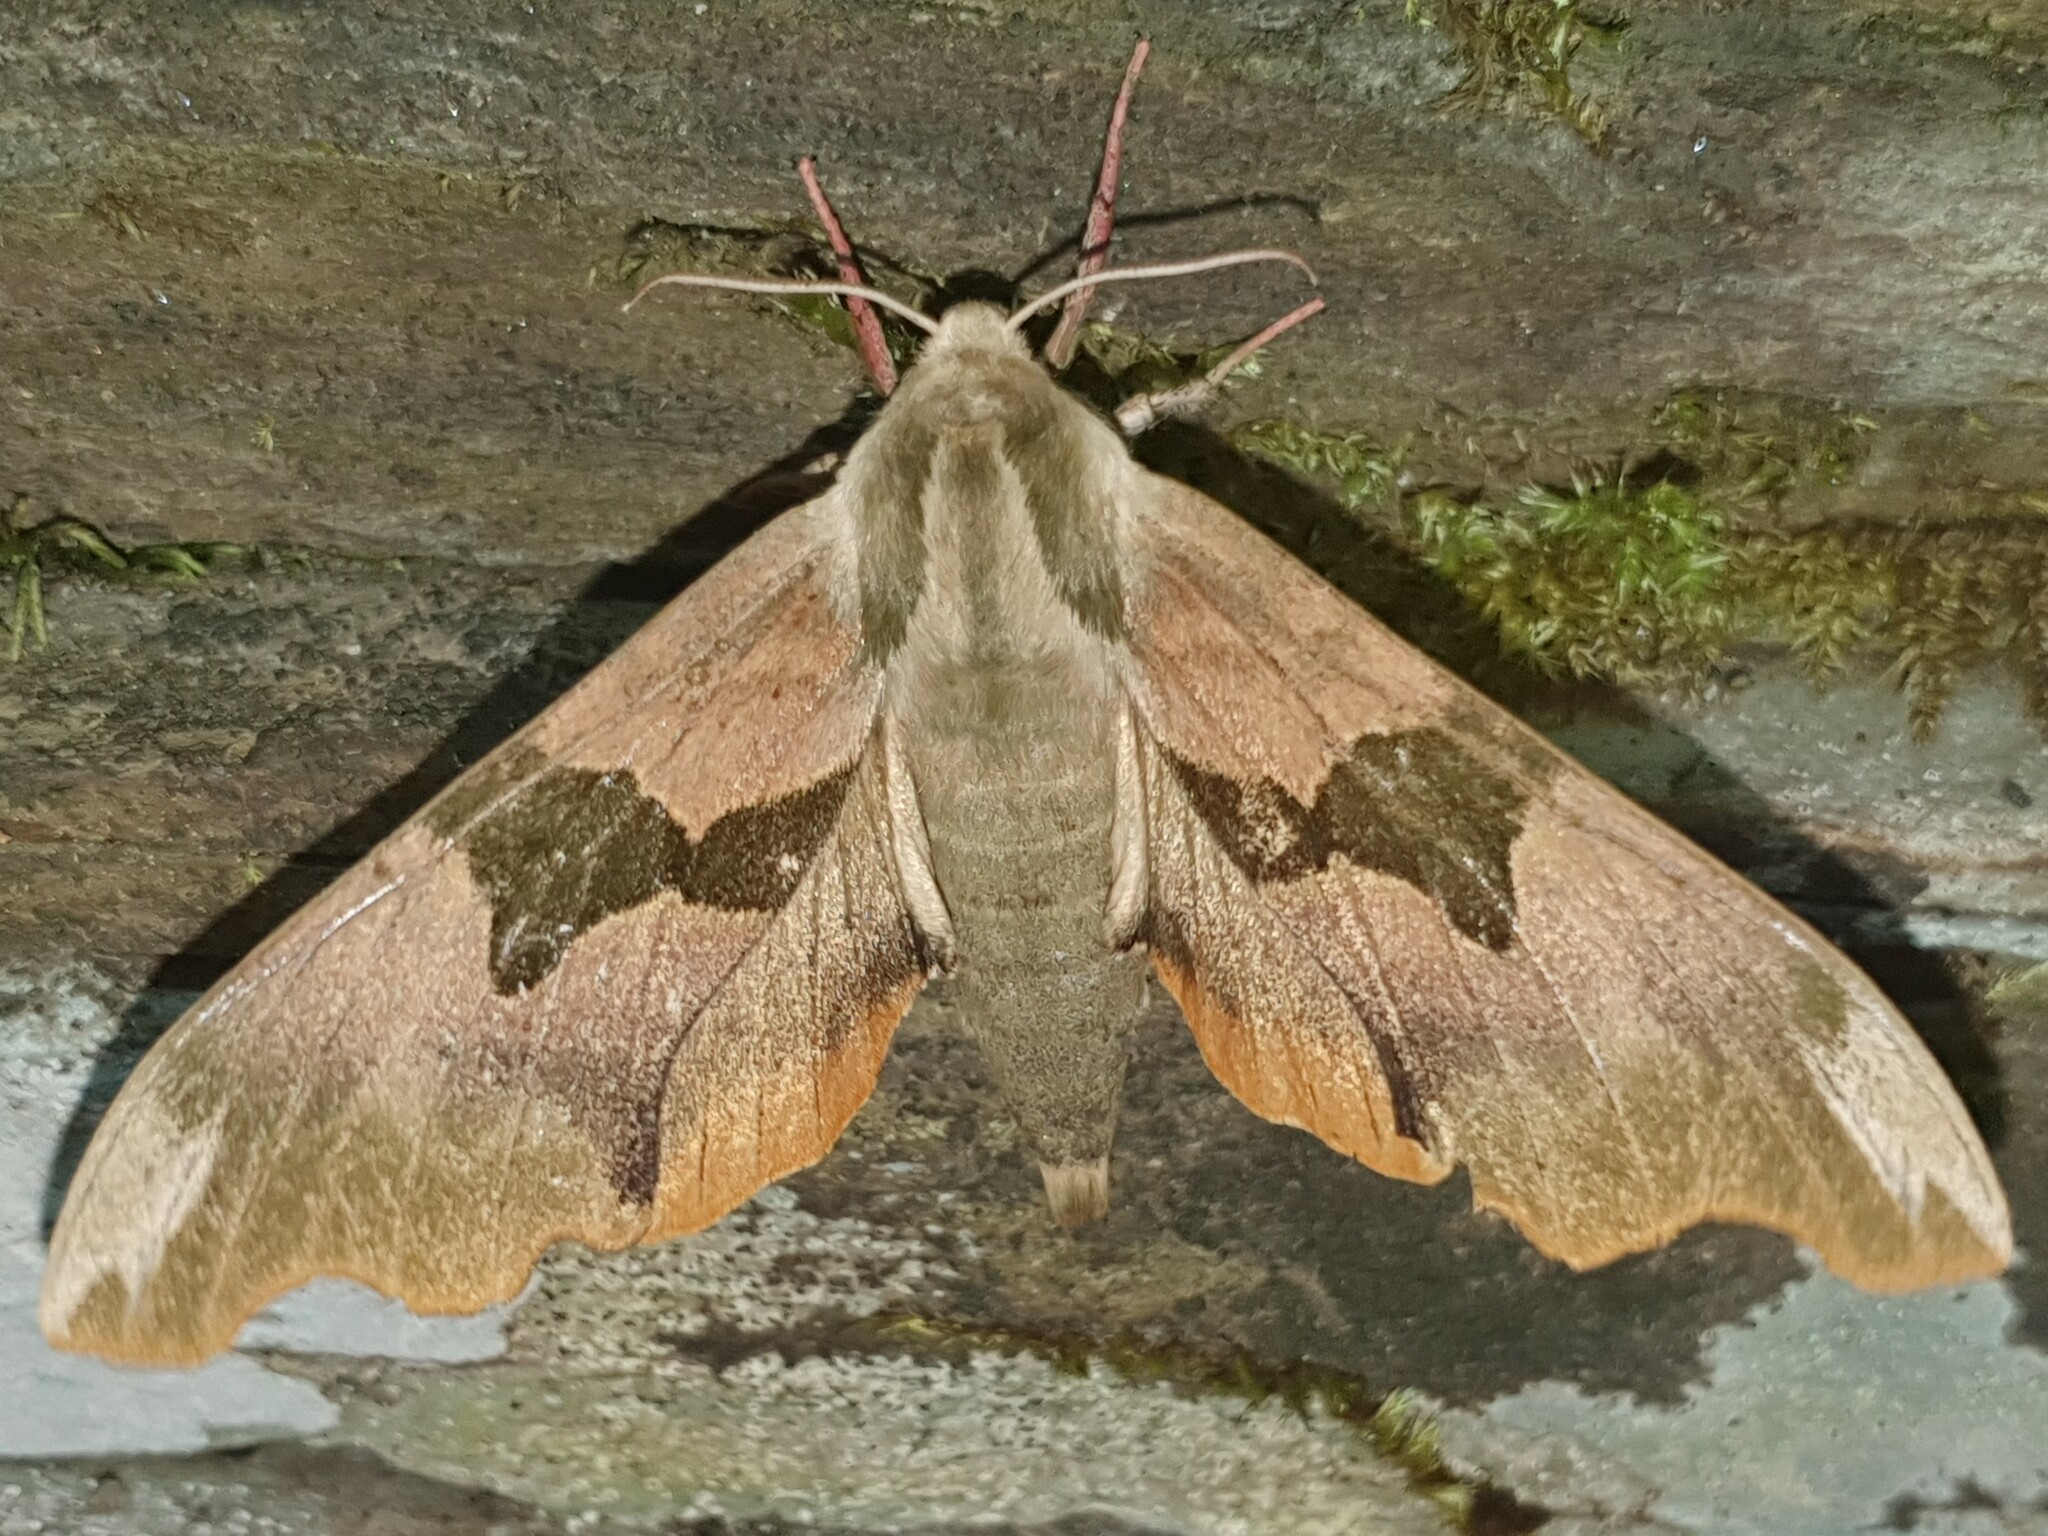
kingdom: Animalia
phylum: Arthropoda
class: Insecta
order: Lepidoptera
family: Sphingidae
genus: Mimas
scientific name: Mimas tiliae
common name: Lime hawk-moth
